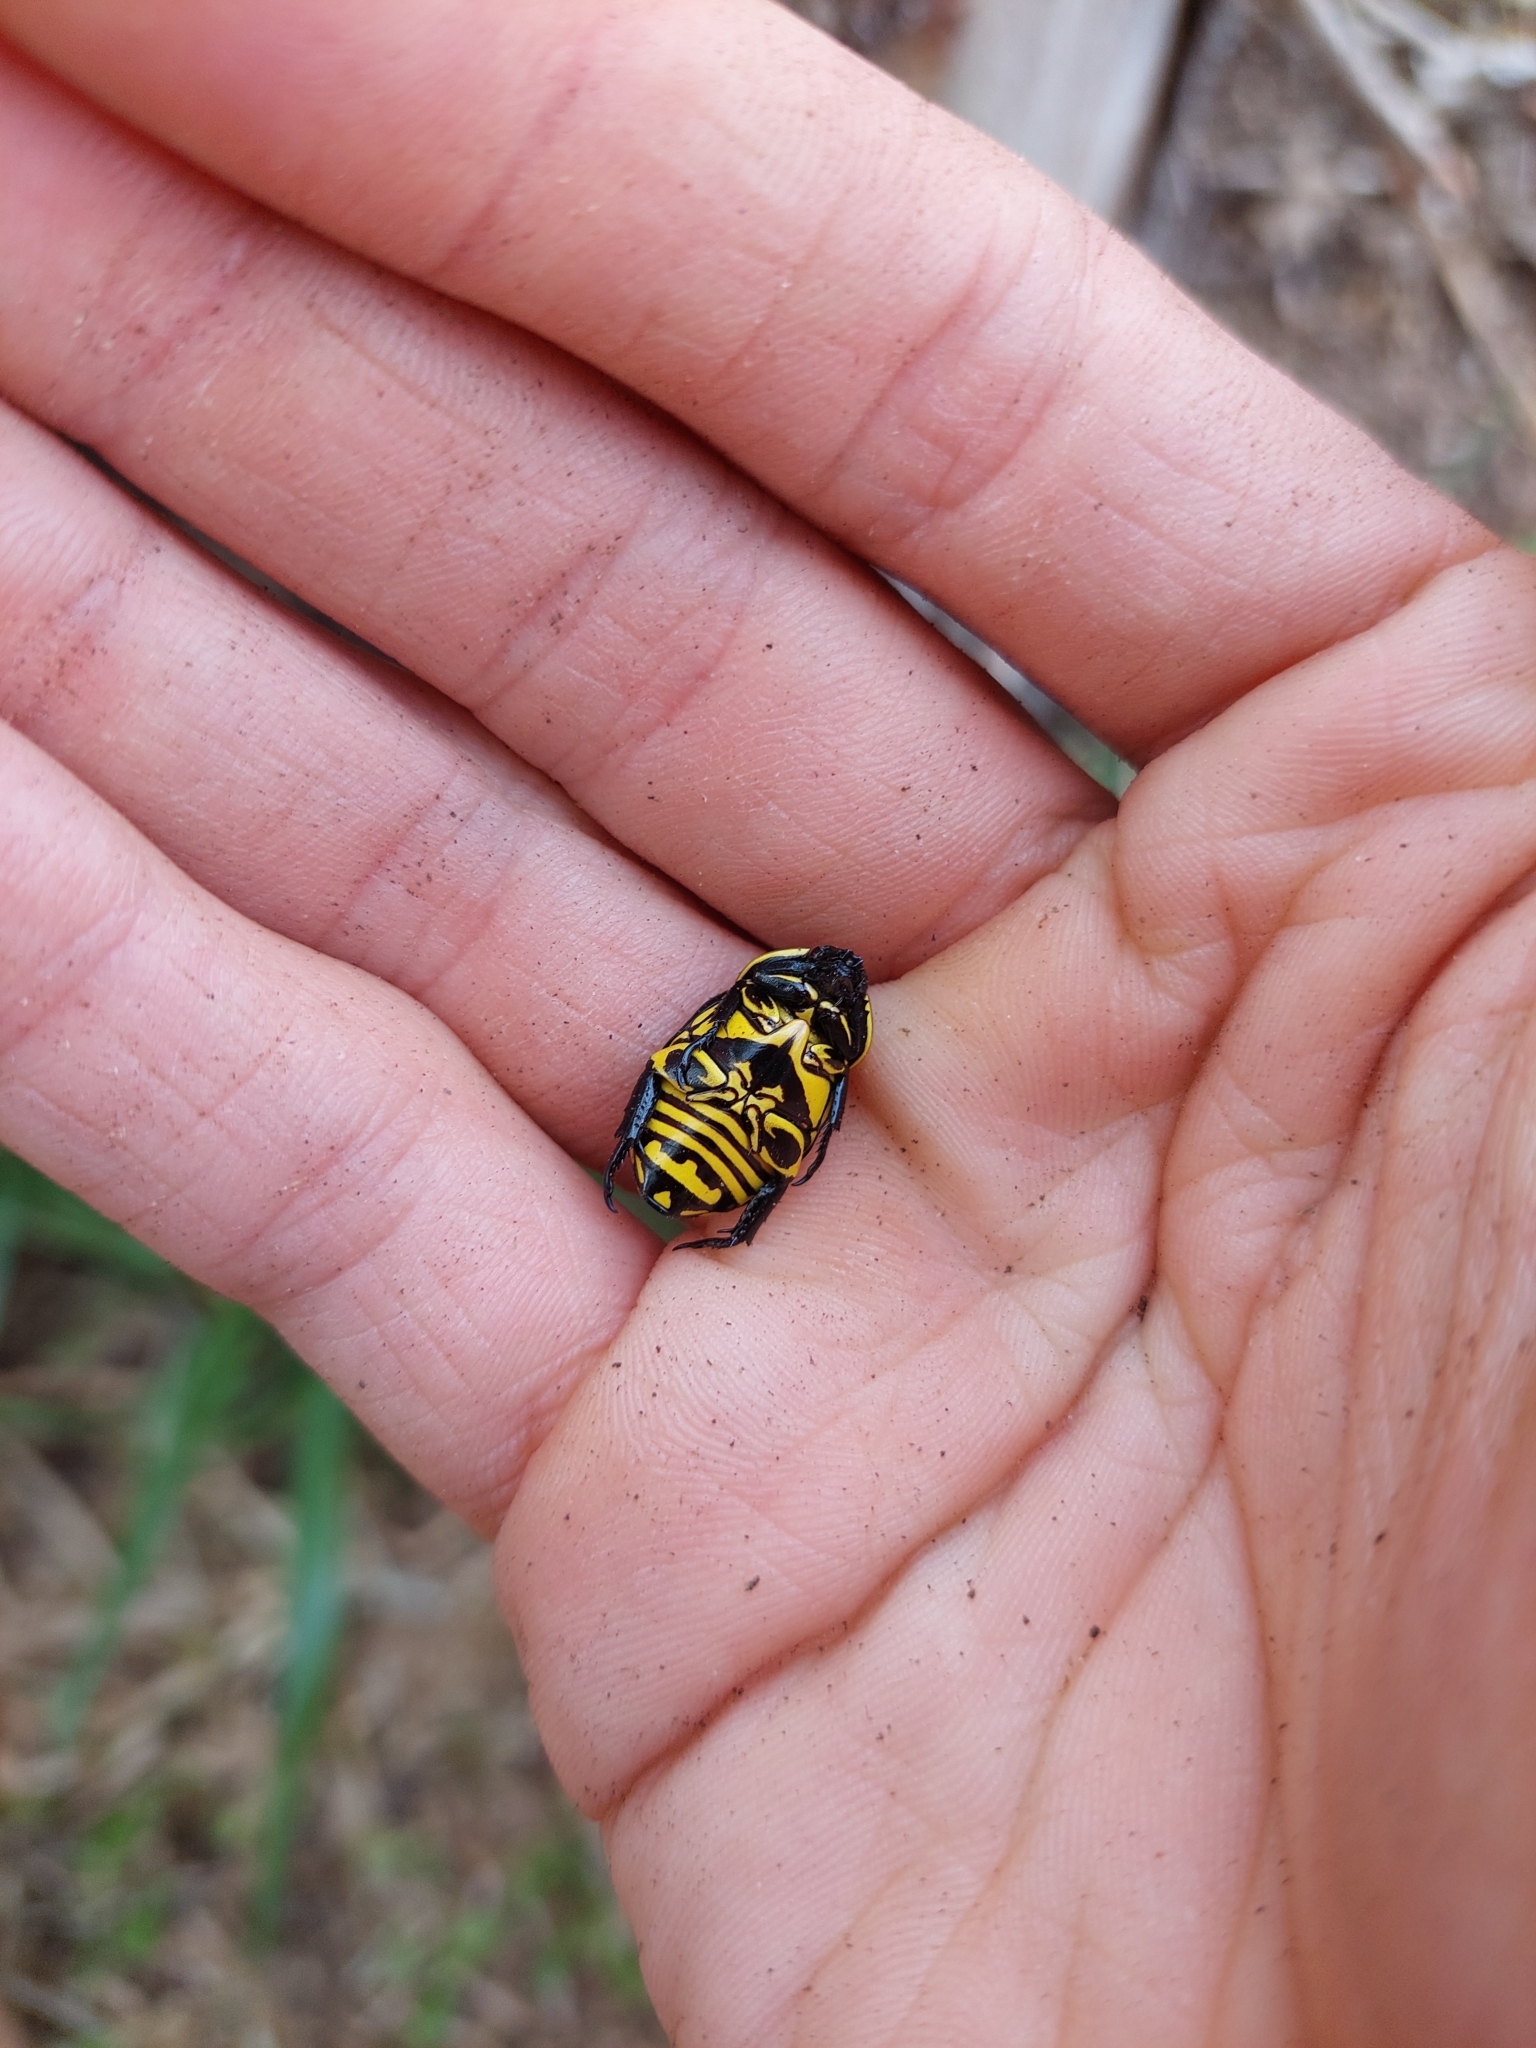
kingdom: Animalia
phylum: Arthropoda
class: Insecta
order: Coleoptera
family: Scarabaeidae
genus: Rutela
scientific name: Rutela lineola
